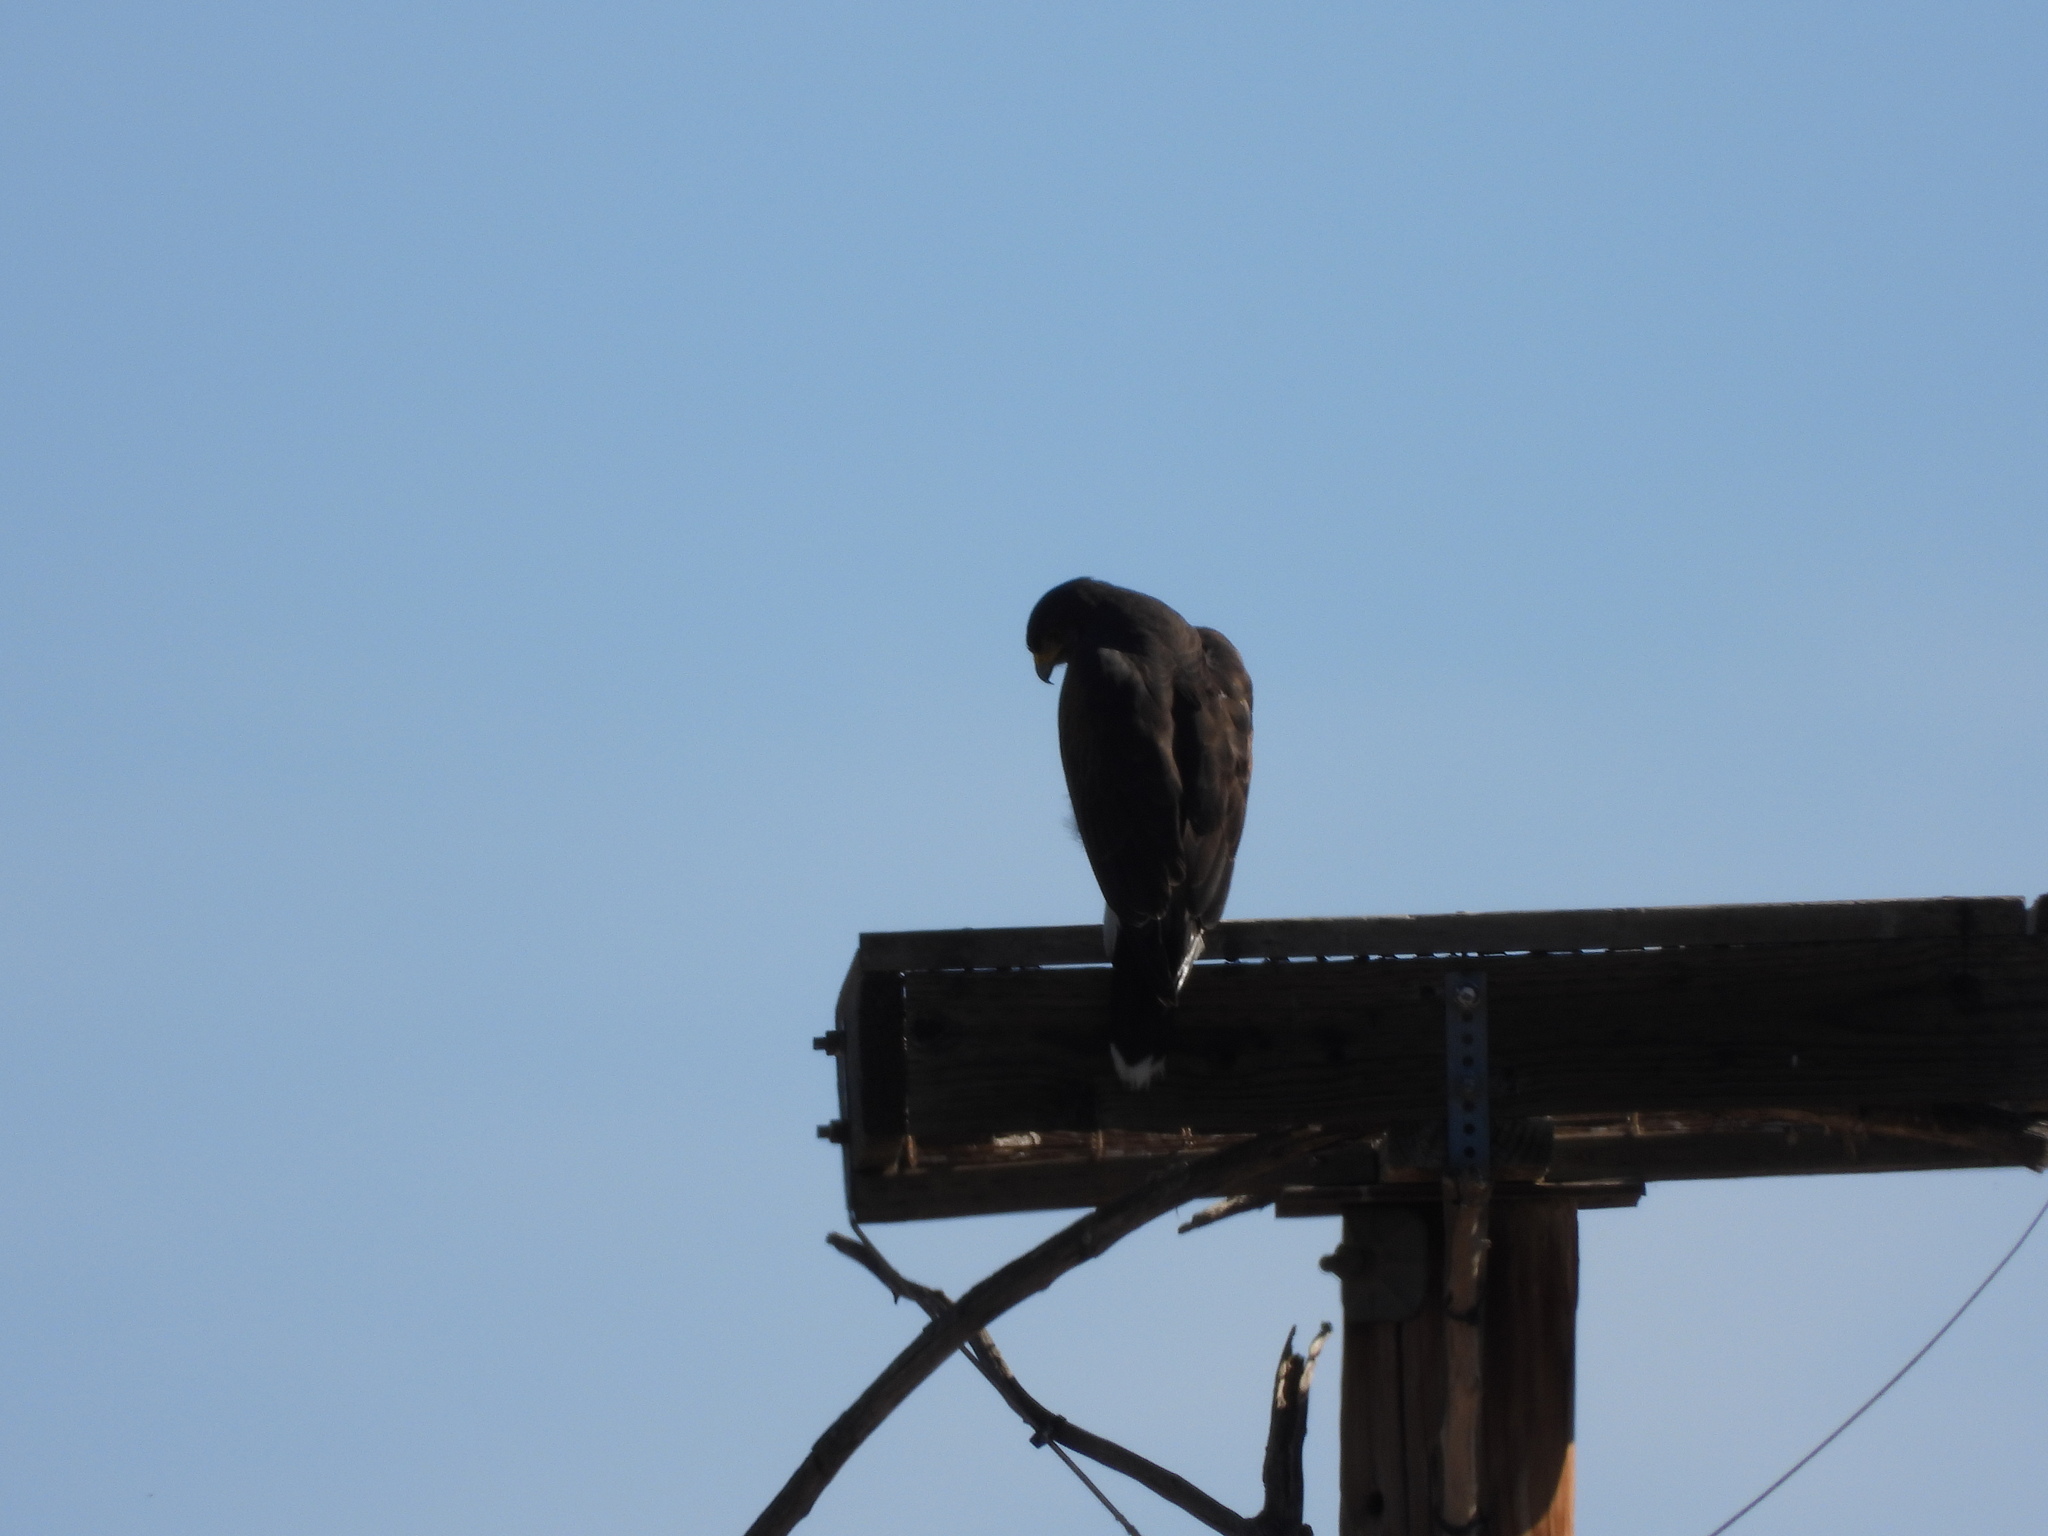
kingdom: Animalia
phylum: Chordata
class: Aves
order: Accipitriformes
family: Accipitridae
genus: Parabuteo
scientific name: Parabuteo unicinctus
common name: Harris's hawk
